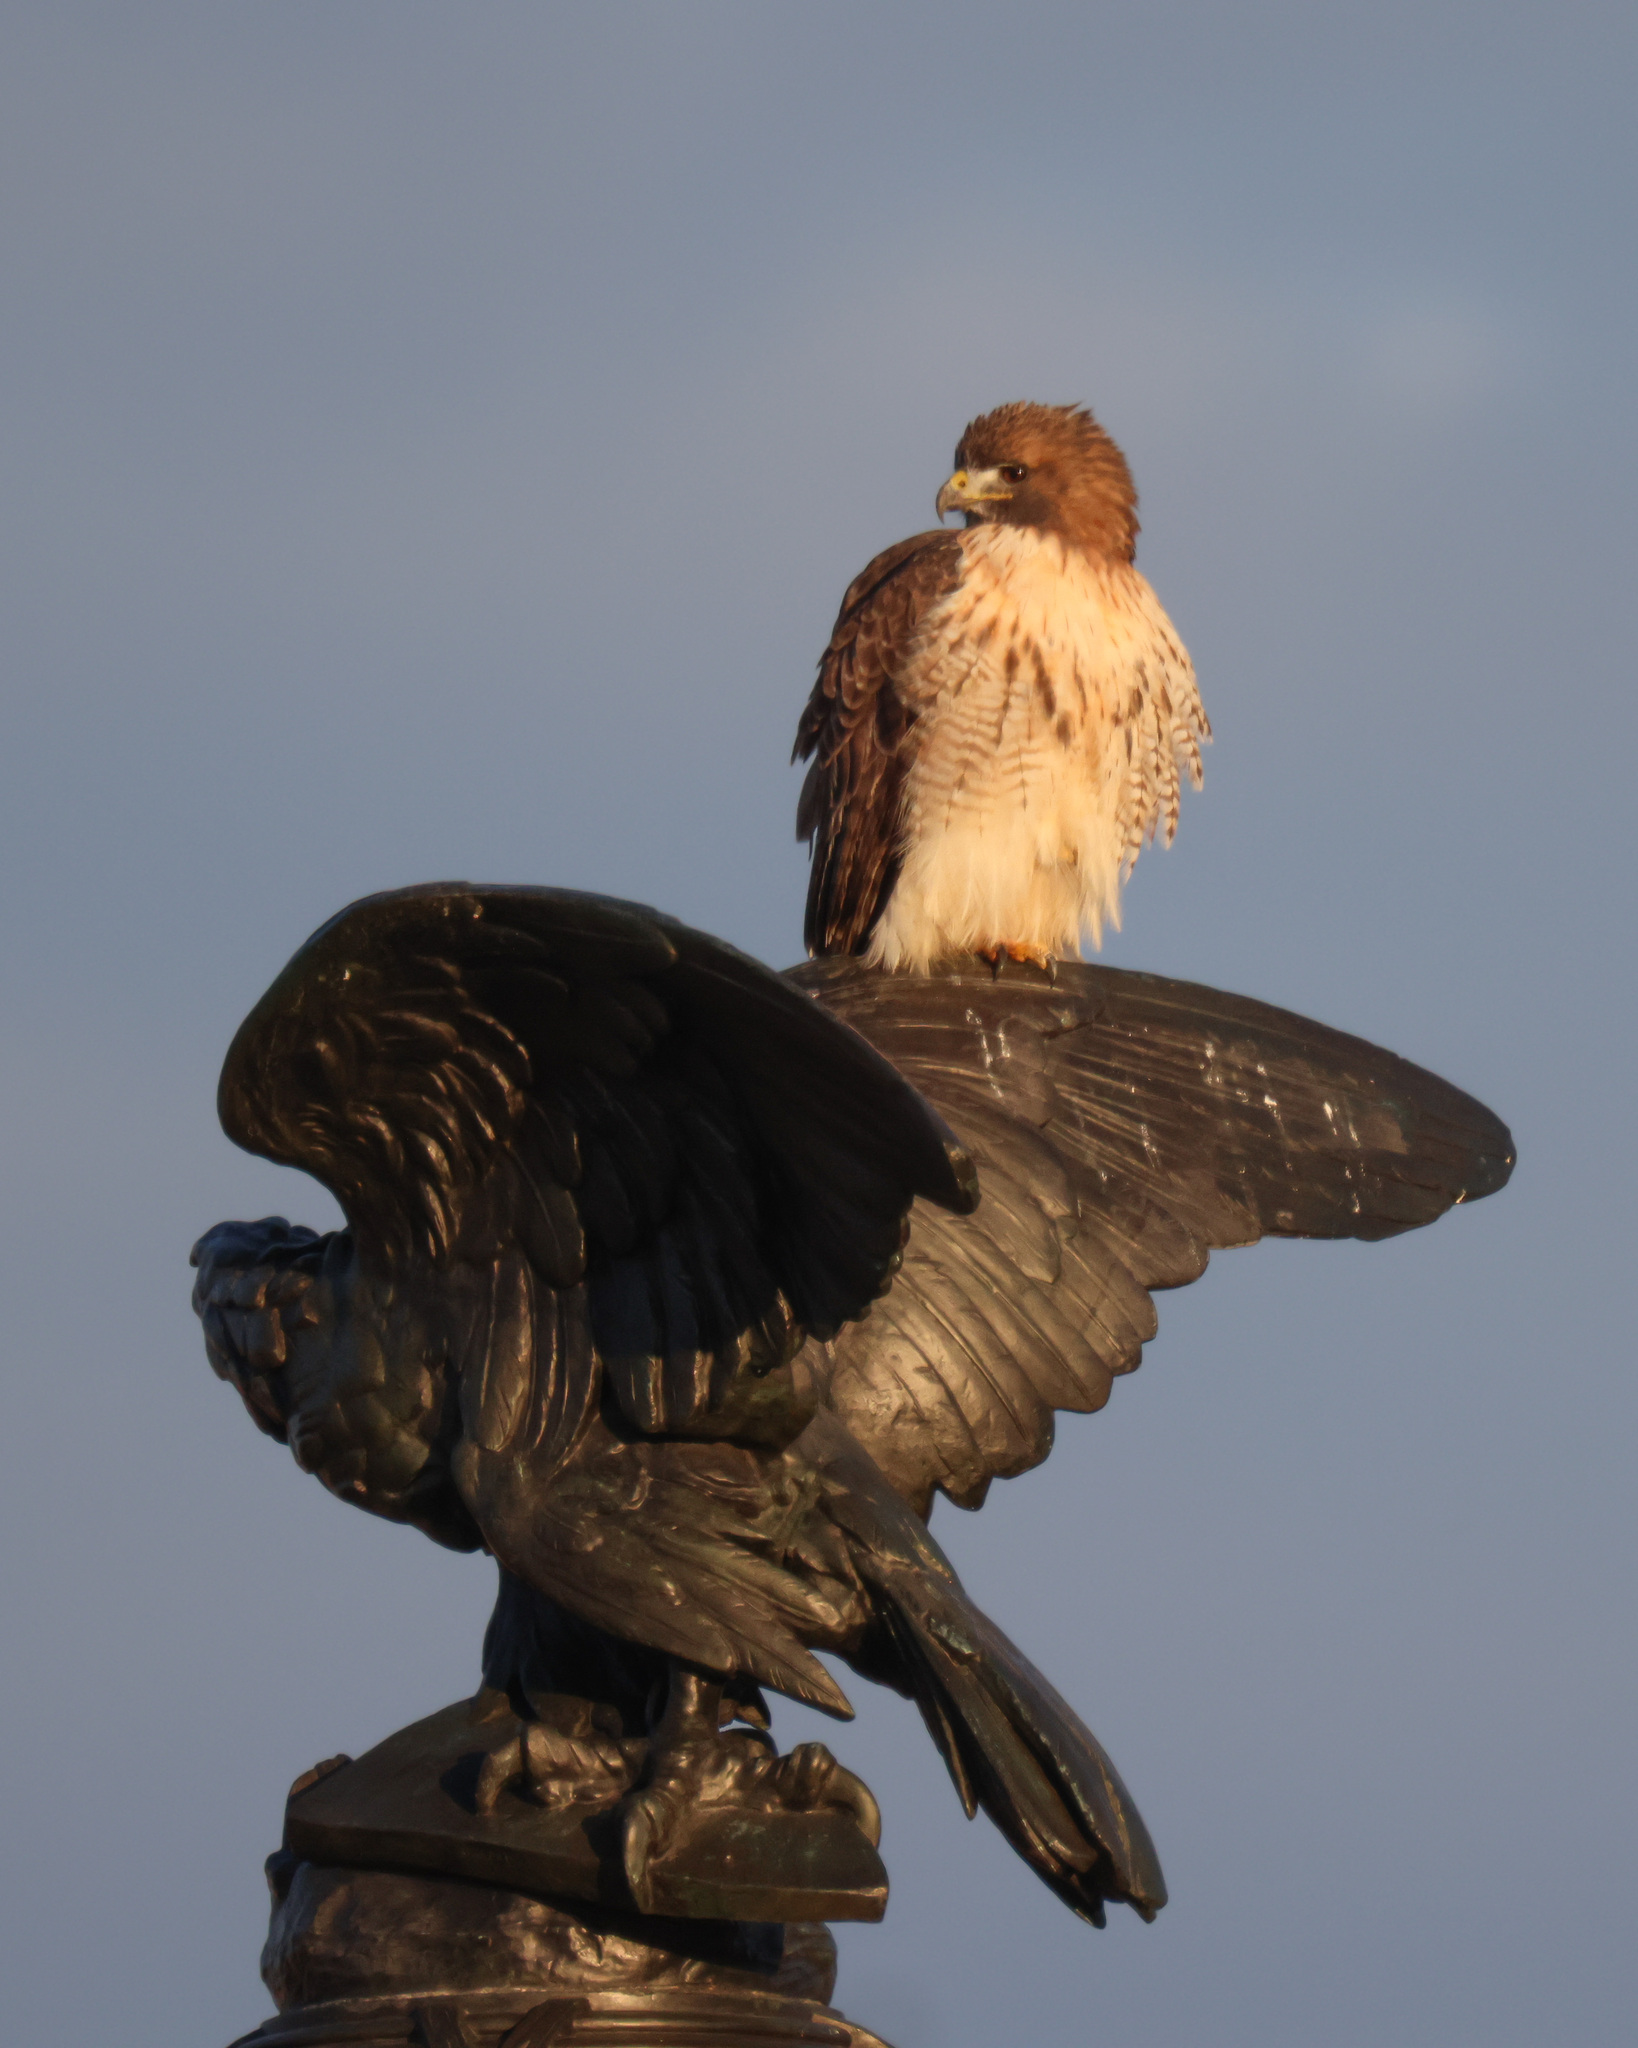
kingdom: Animalia
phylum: Chordata
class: Aves
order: Accipitriformes
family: Accipitridae
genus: Buteo
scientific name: Buteo jamaicensis
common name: Red-tailed hawk
